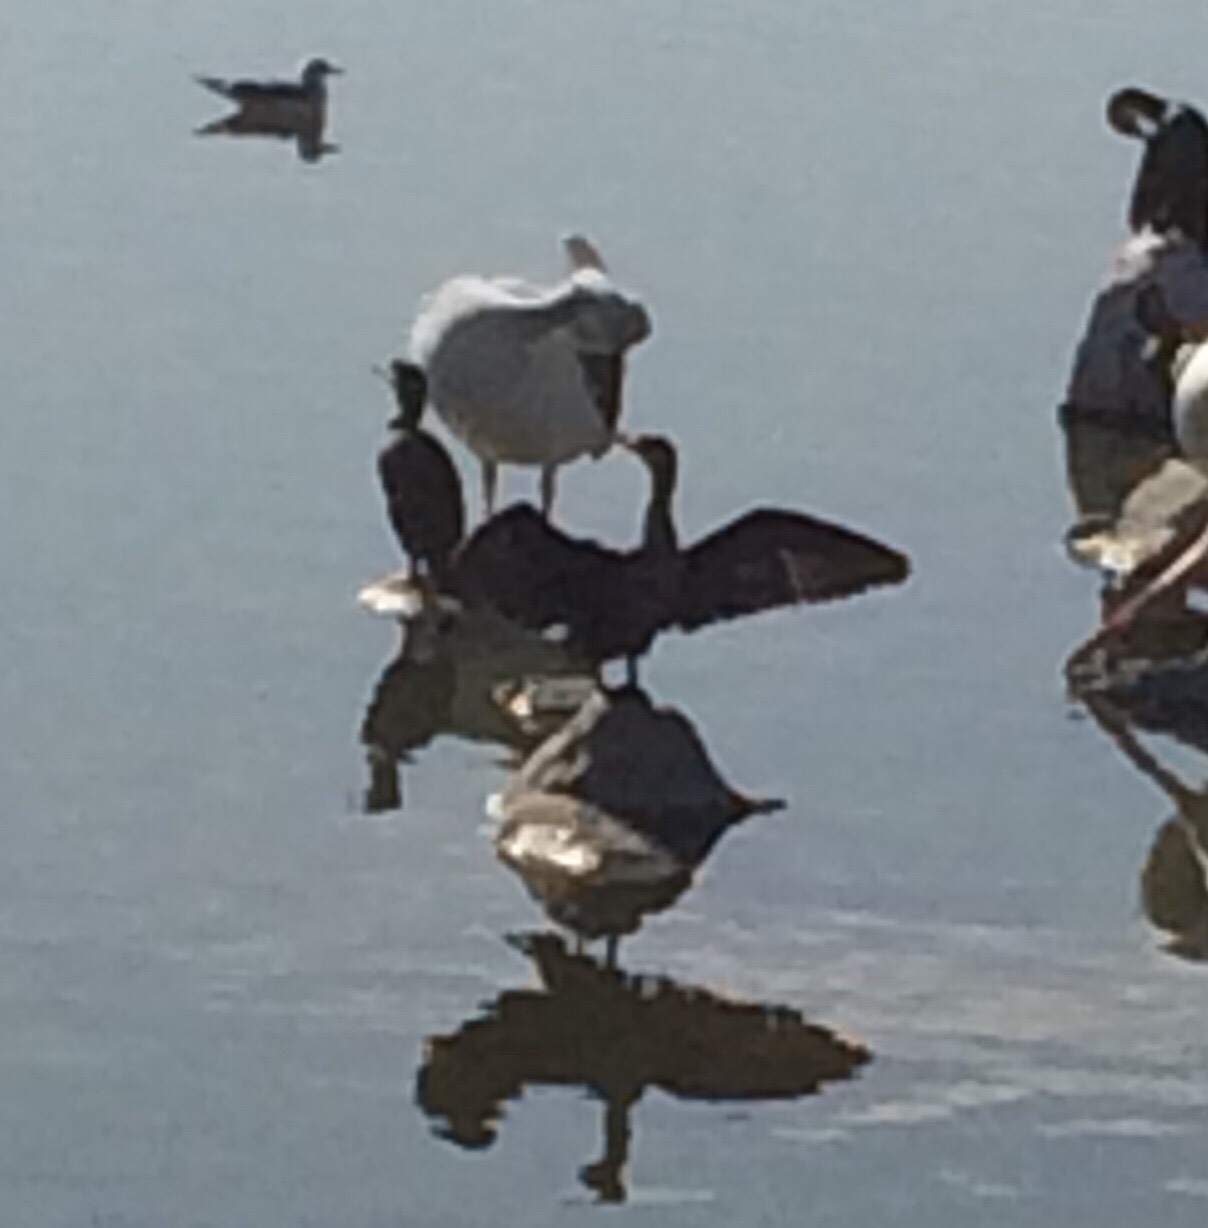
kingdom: Animalia
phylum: Chordata
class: Aves
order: Suliformes
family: Phalacrocoracidae
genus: Phalacrocorax
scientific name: Phalacrocorax auritus
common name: Double-crested cormorant
